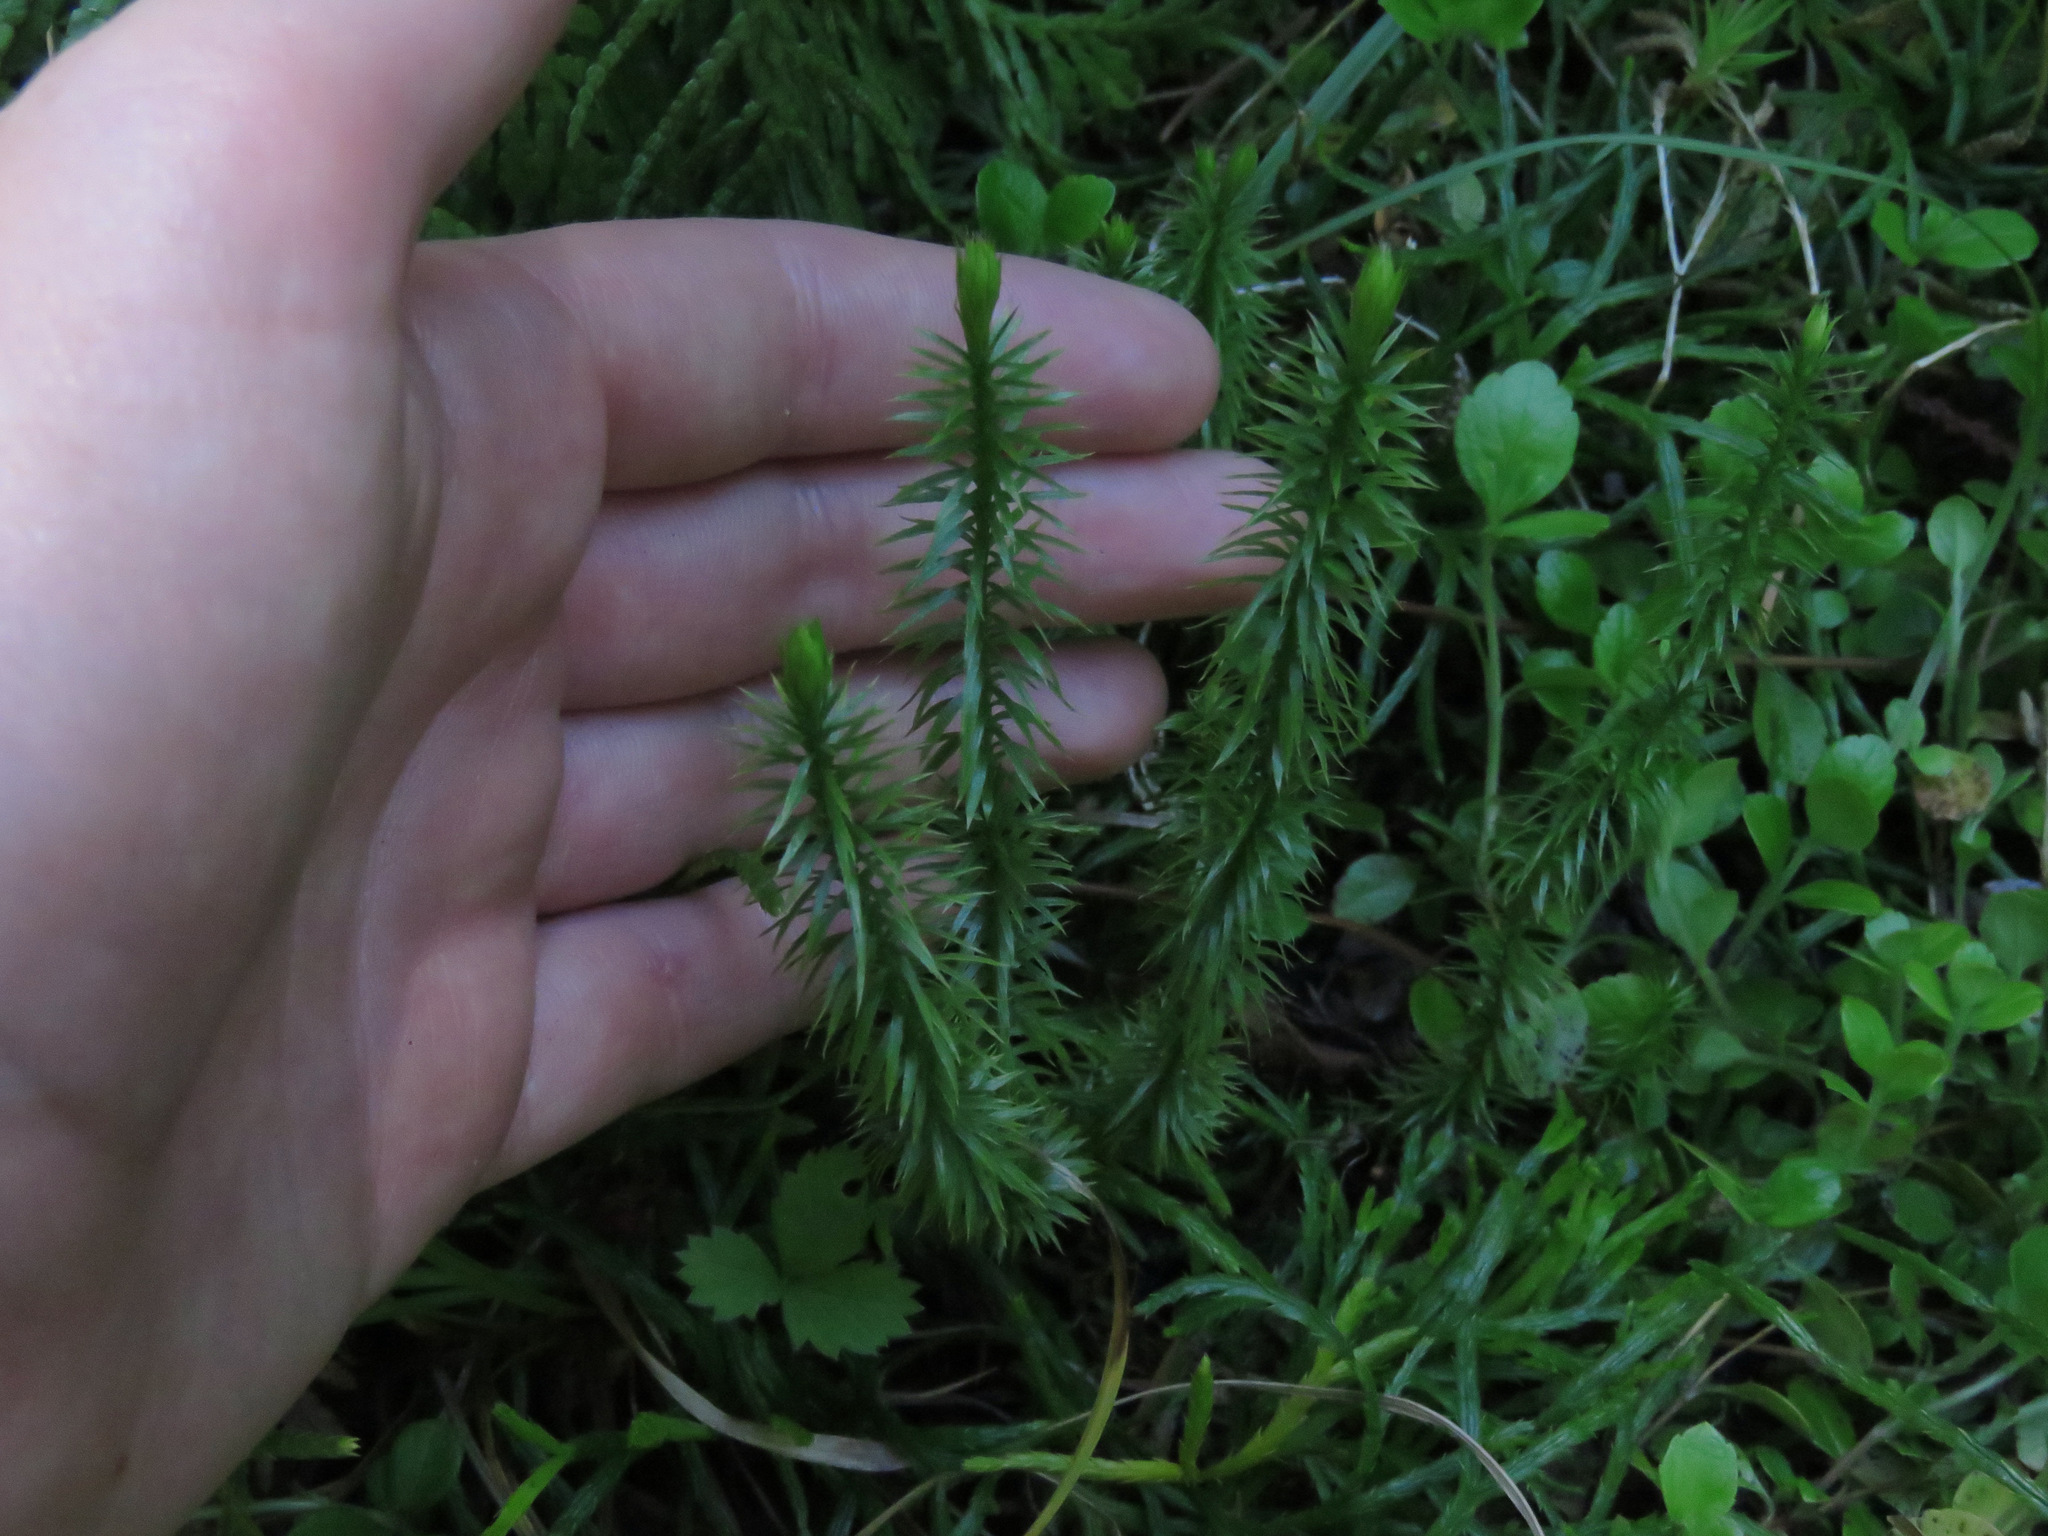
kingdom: Plantae
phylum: Tracheophyta
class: Lycopodiopsida
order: Lycopodiales
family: Lycopodiaceae
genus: Spinulum
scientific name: Spinulum annotinum
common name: Interrupted club-moss
